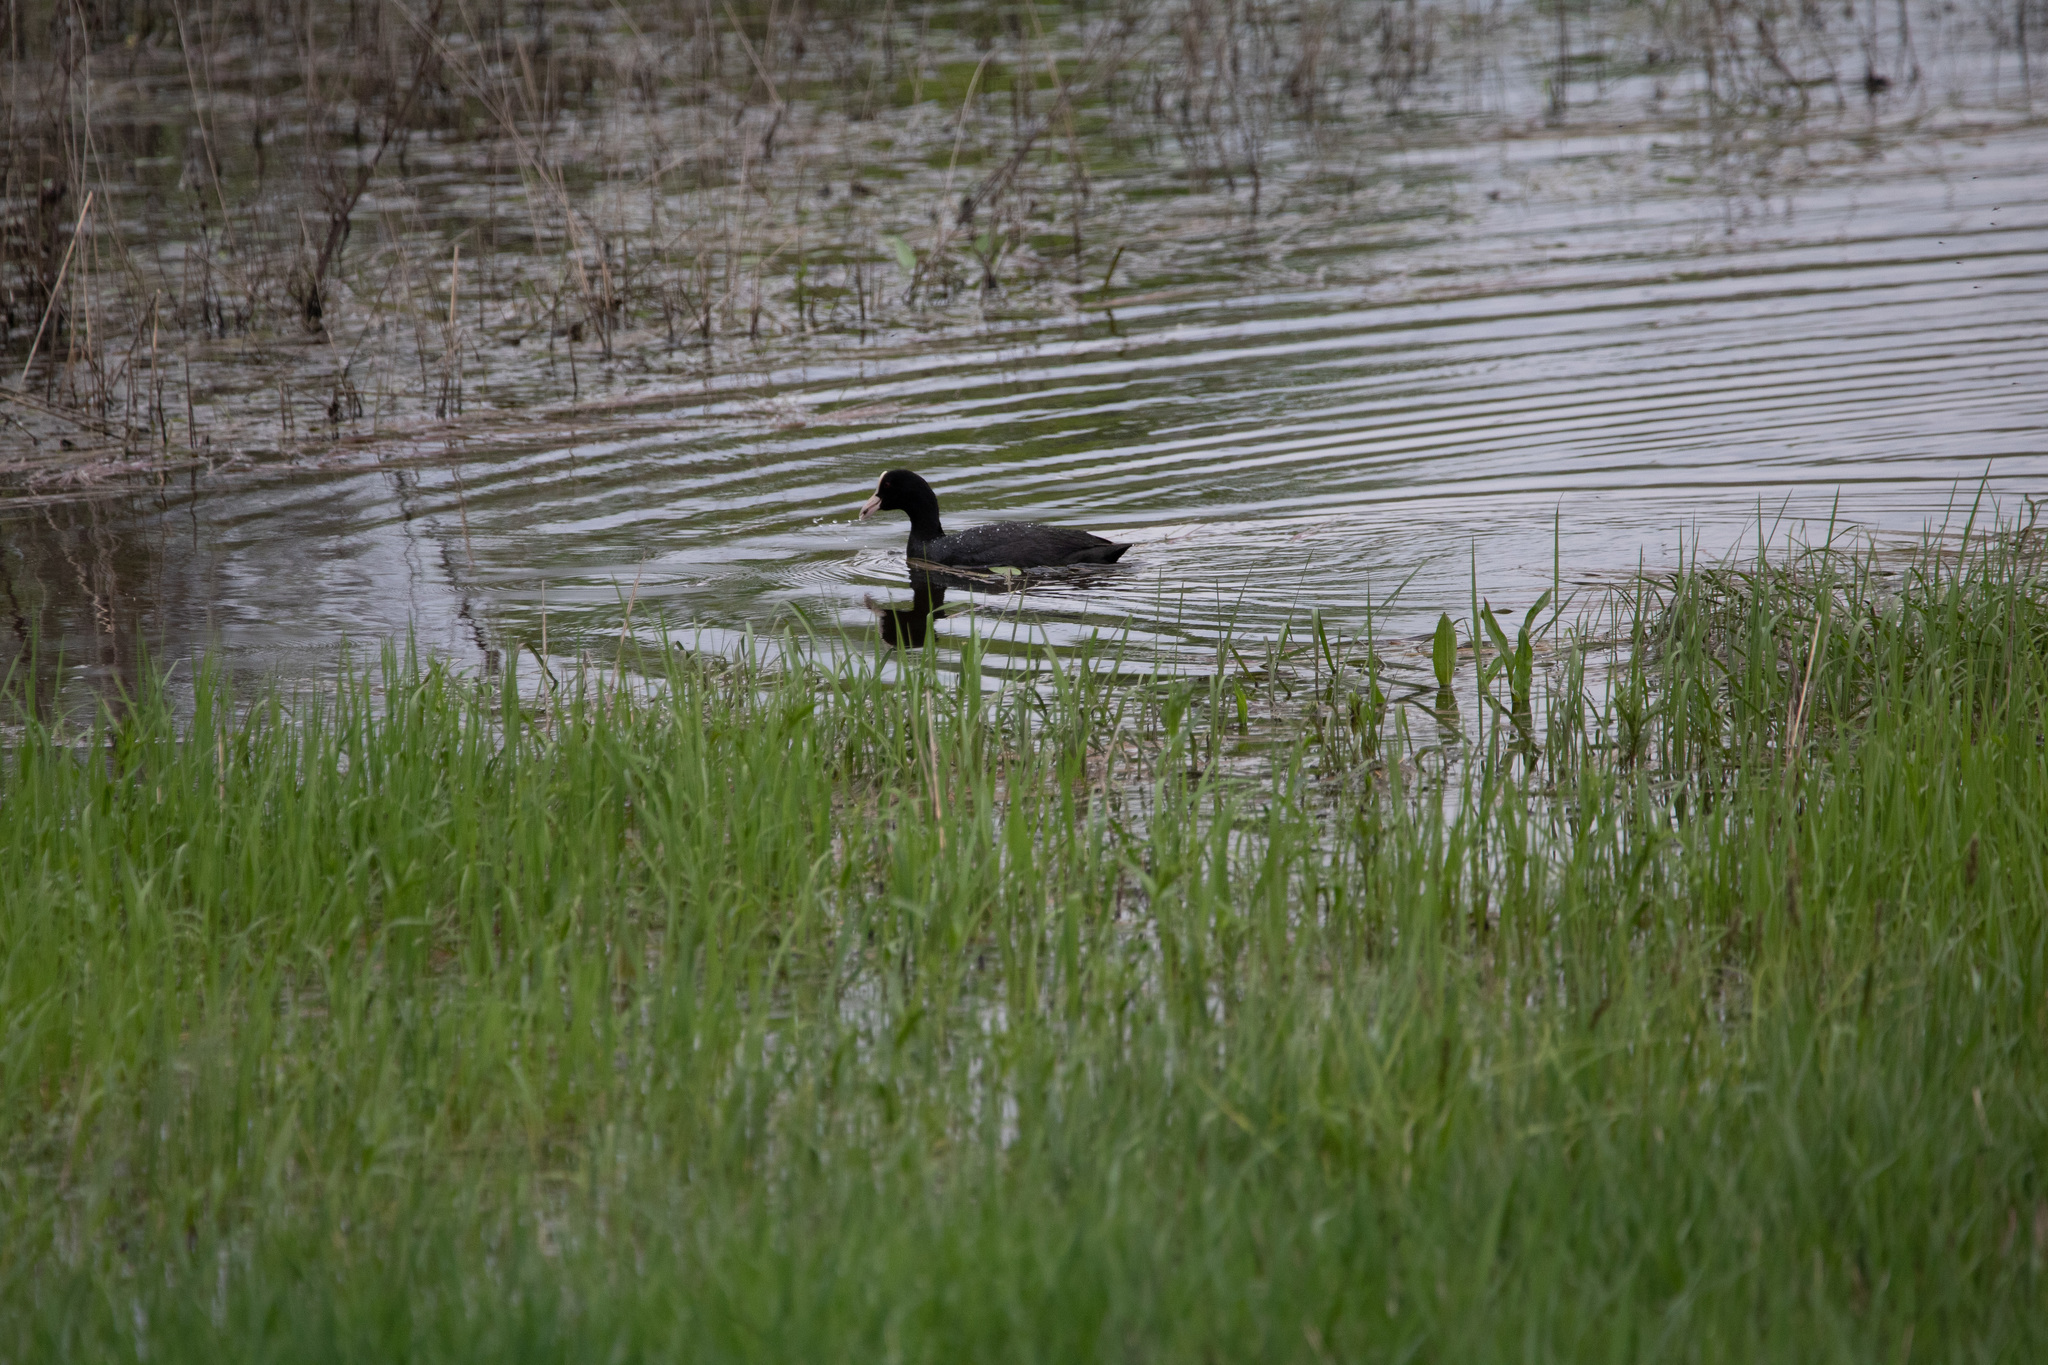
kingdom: Animalia
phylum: Chordata
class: Aves
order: Gruiformes
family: Rallidae
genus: Fulica
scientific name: Fulica atra
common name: Eurasian coot
